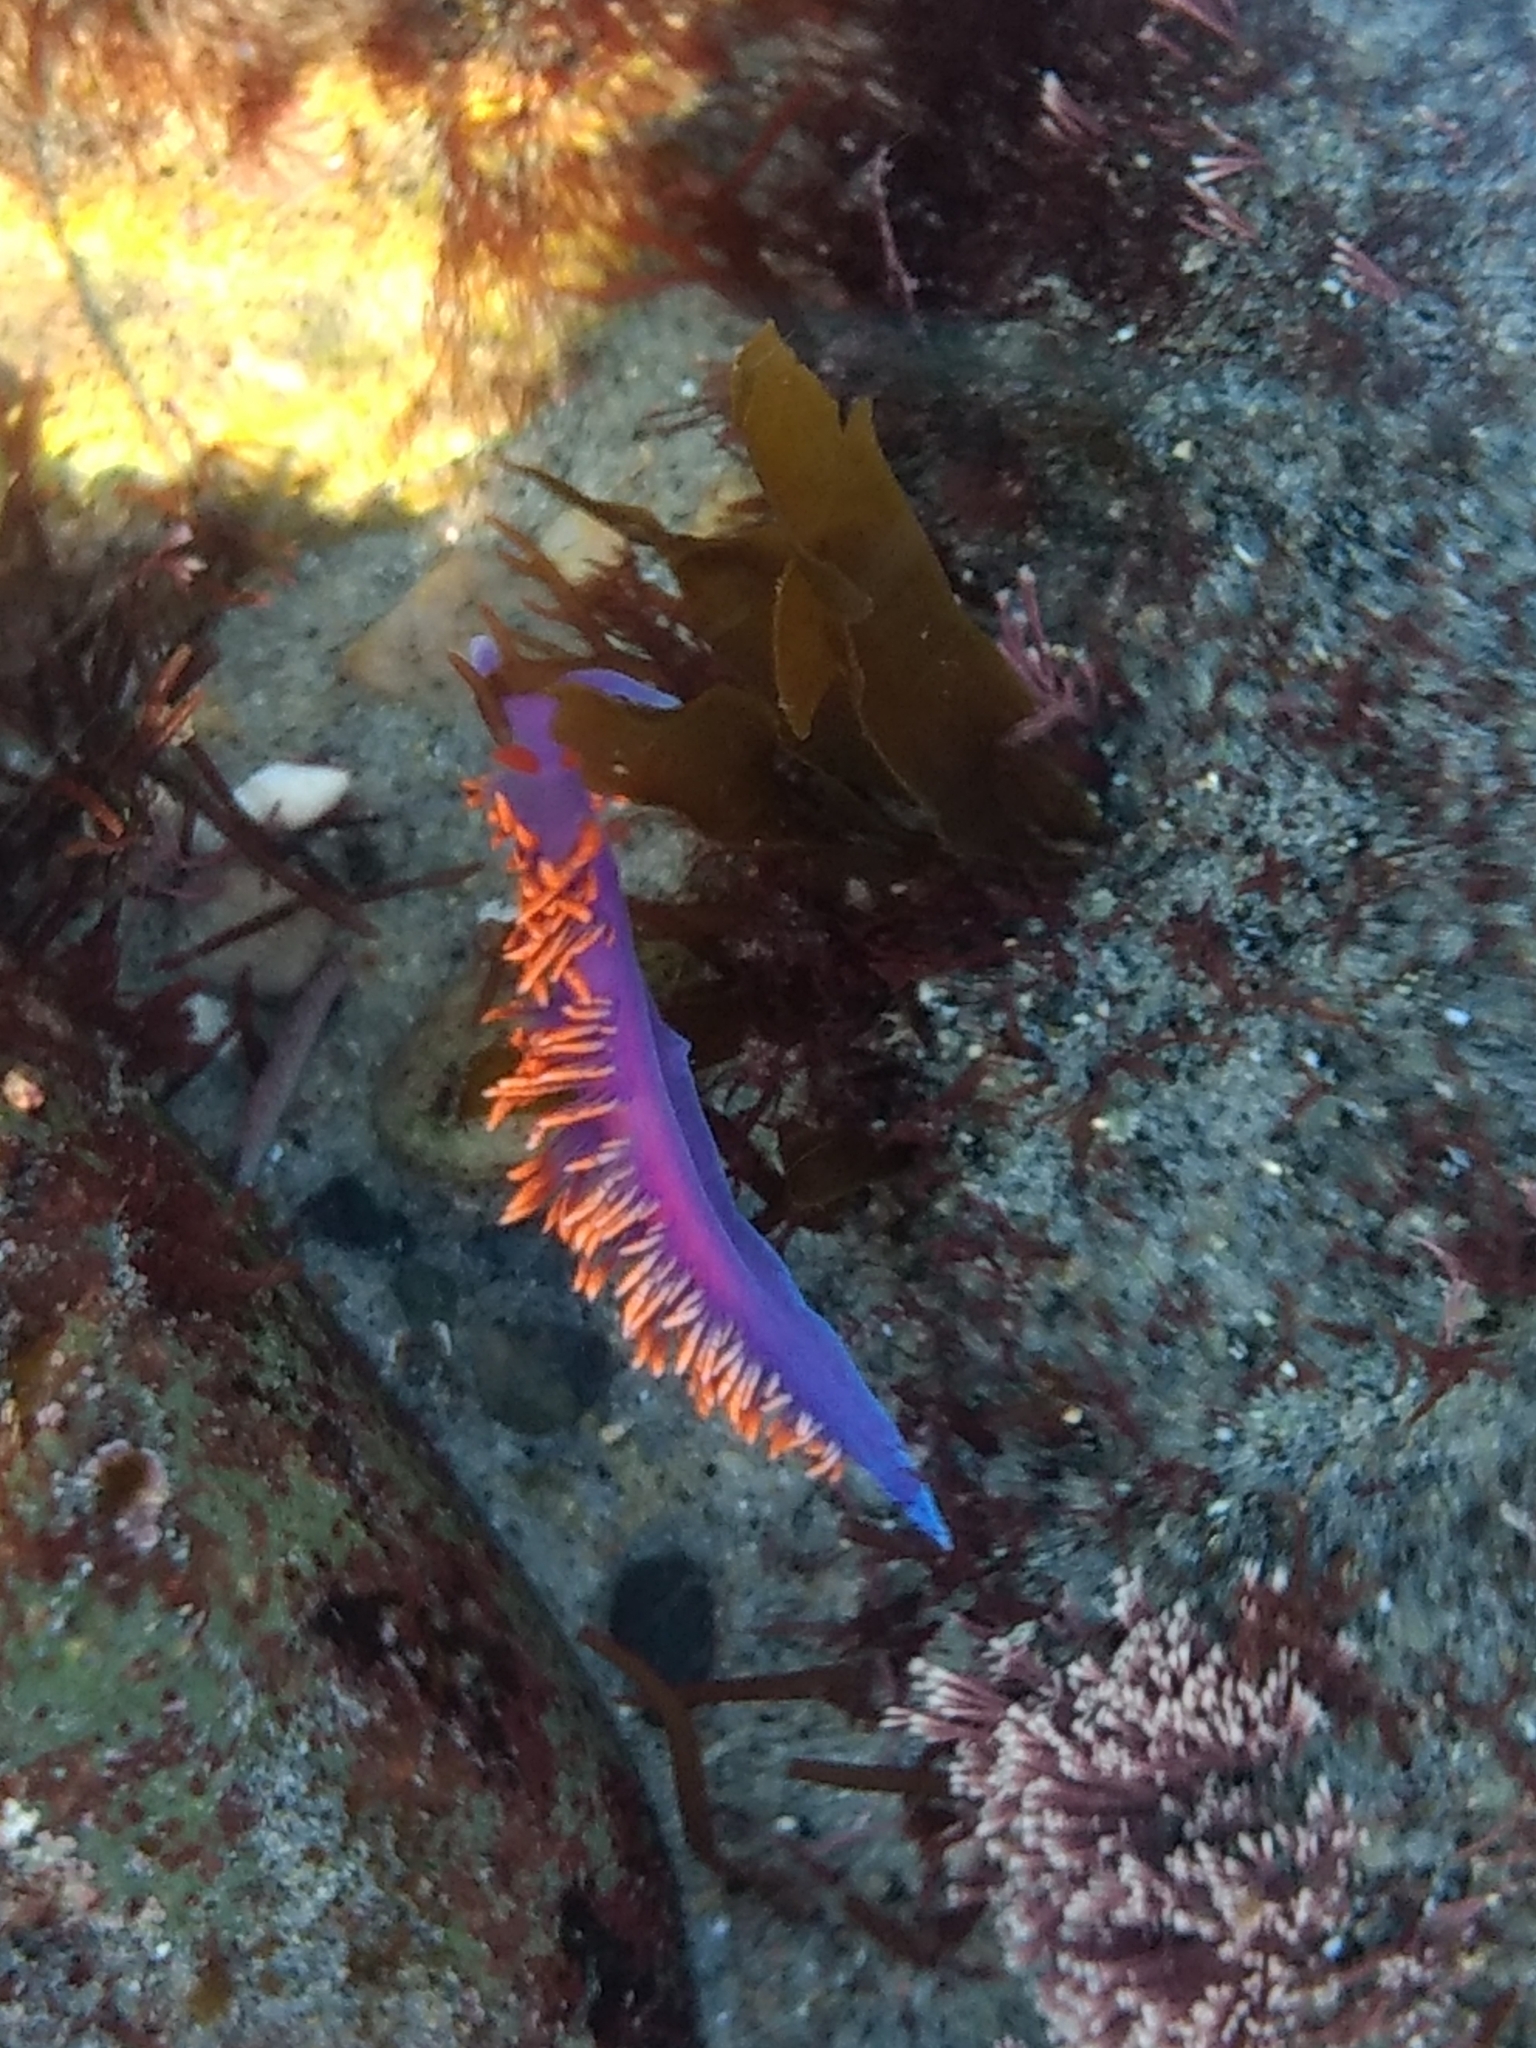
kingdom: Animalia
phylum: Mollusca
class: Gastropoda
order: Nudibranchia
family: Flabellinopsidae
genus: Flabellinopsis
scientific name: Flabellinopsis iodinea
